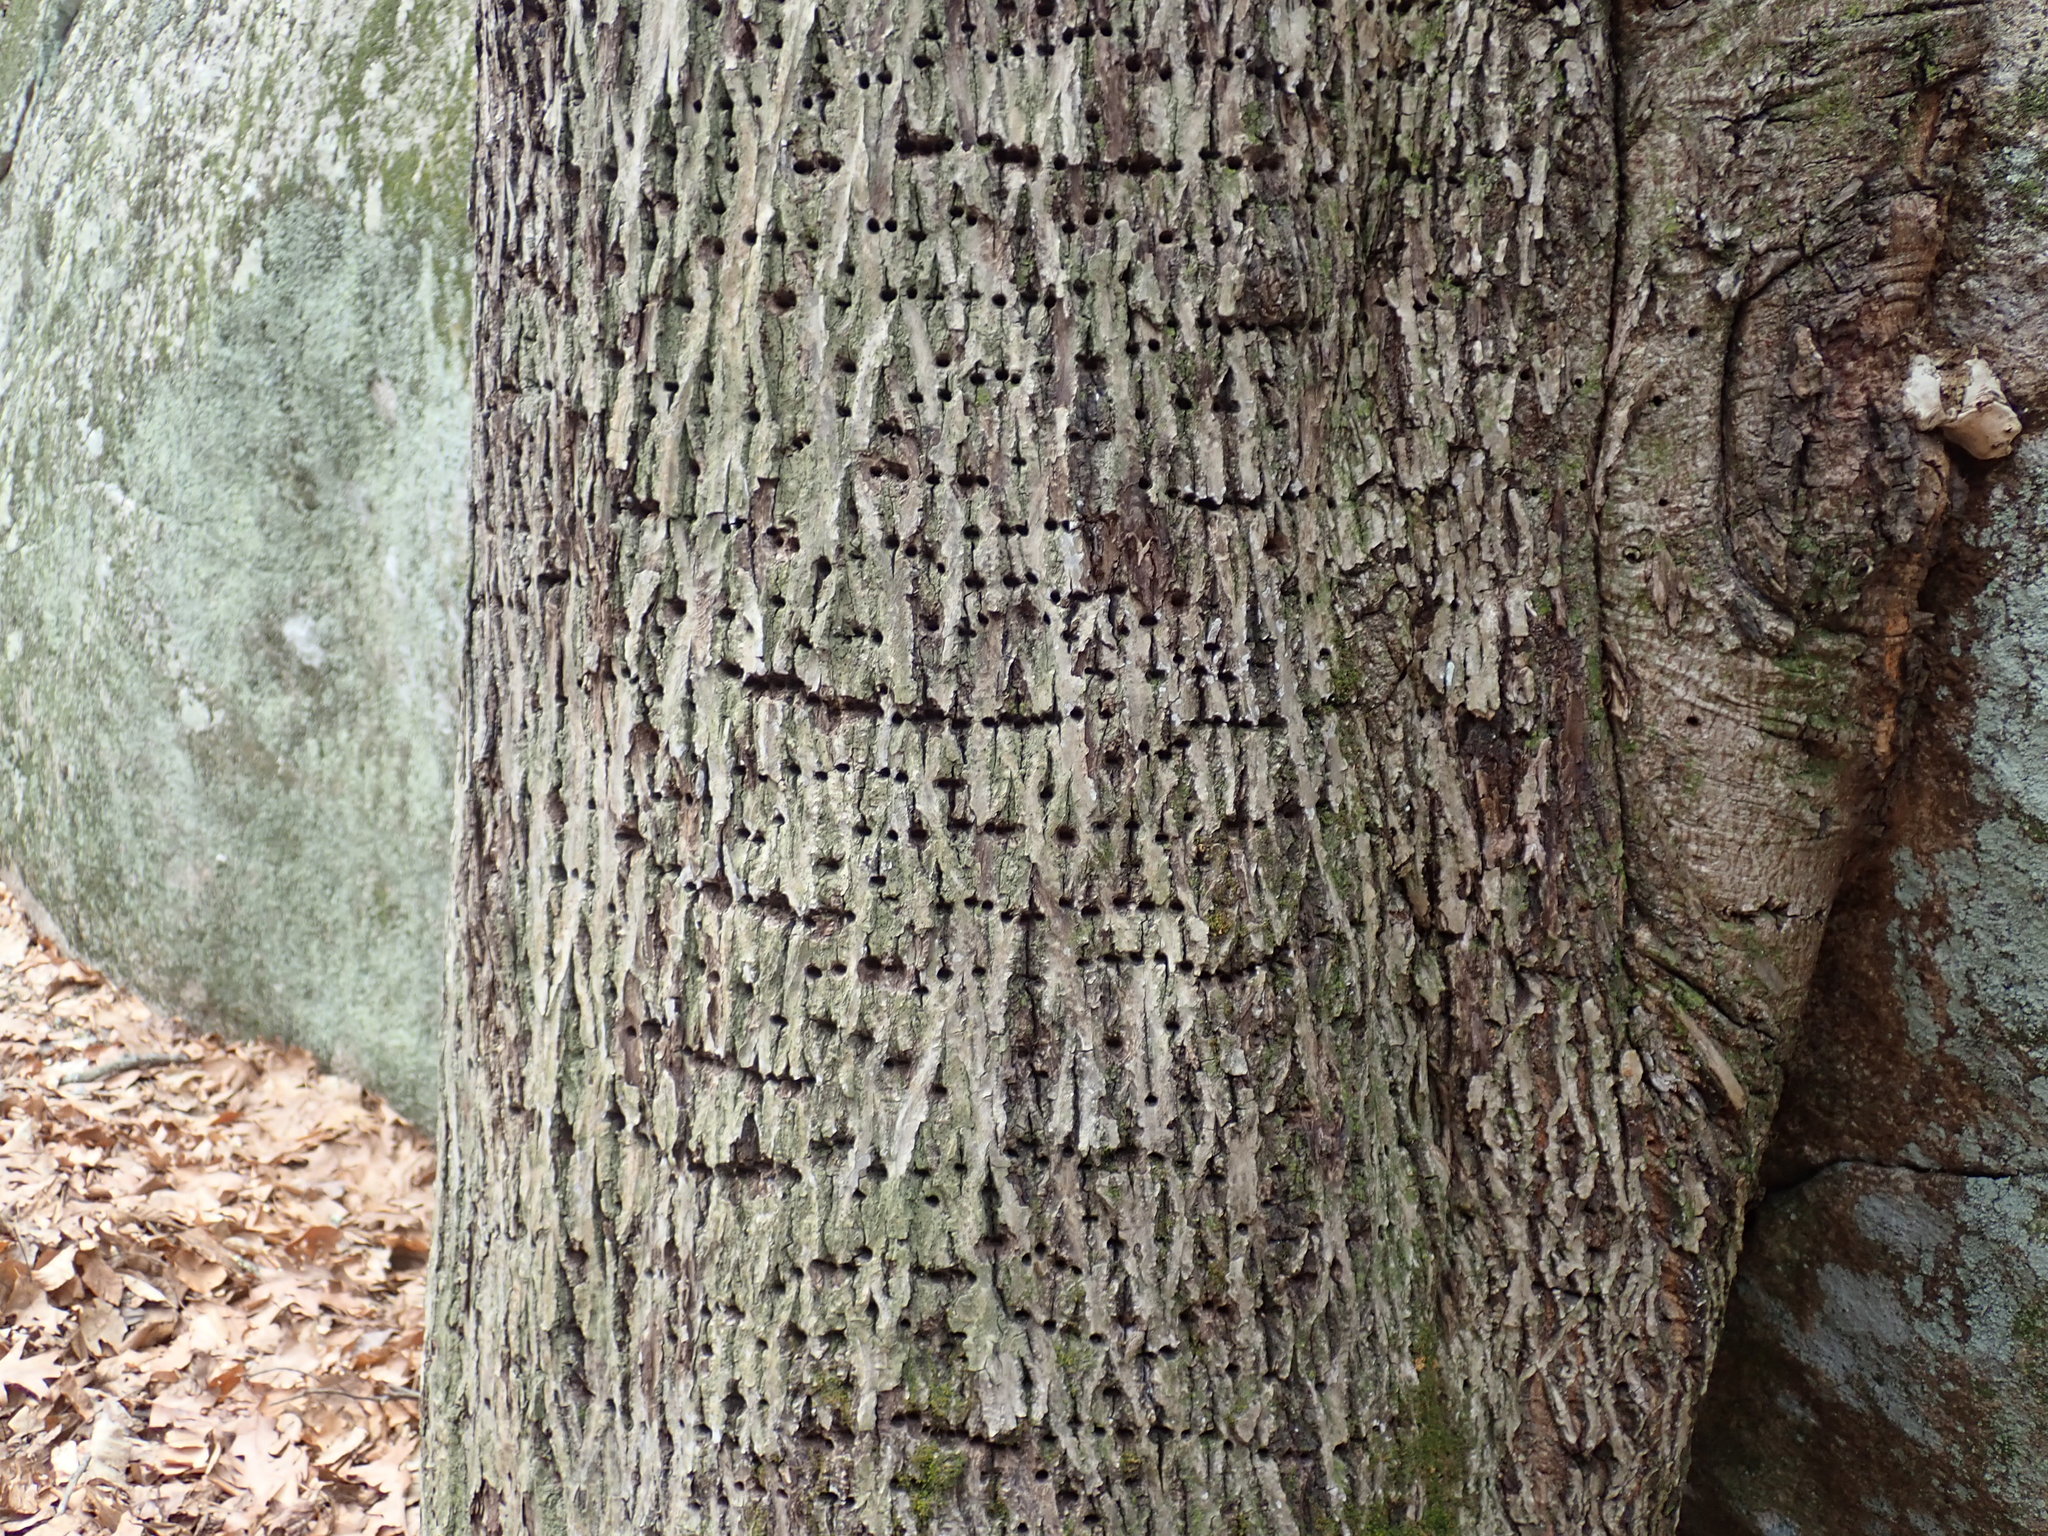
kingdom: Animalia
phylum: Chordata
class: Aves
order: Piciformes
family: Picidae
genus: Sphyrapicus
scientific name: Sphyrapicus varius
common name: Yellow-bellied sapsucker
